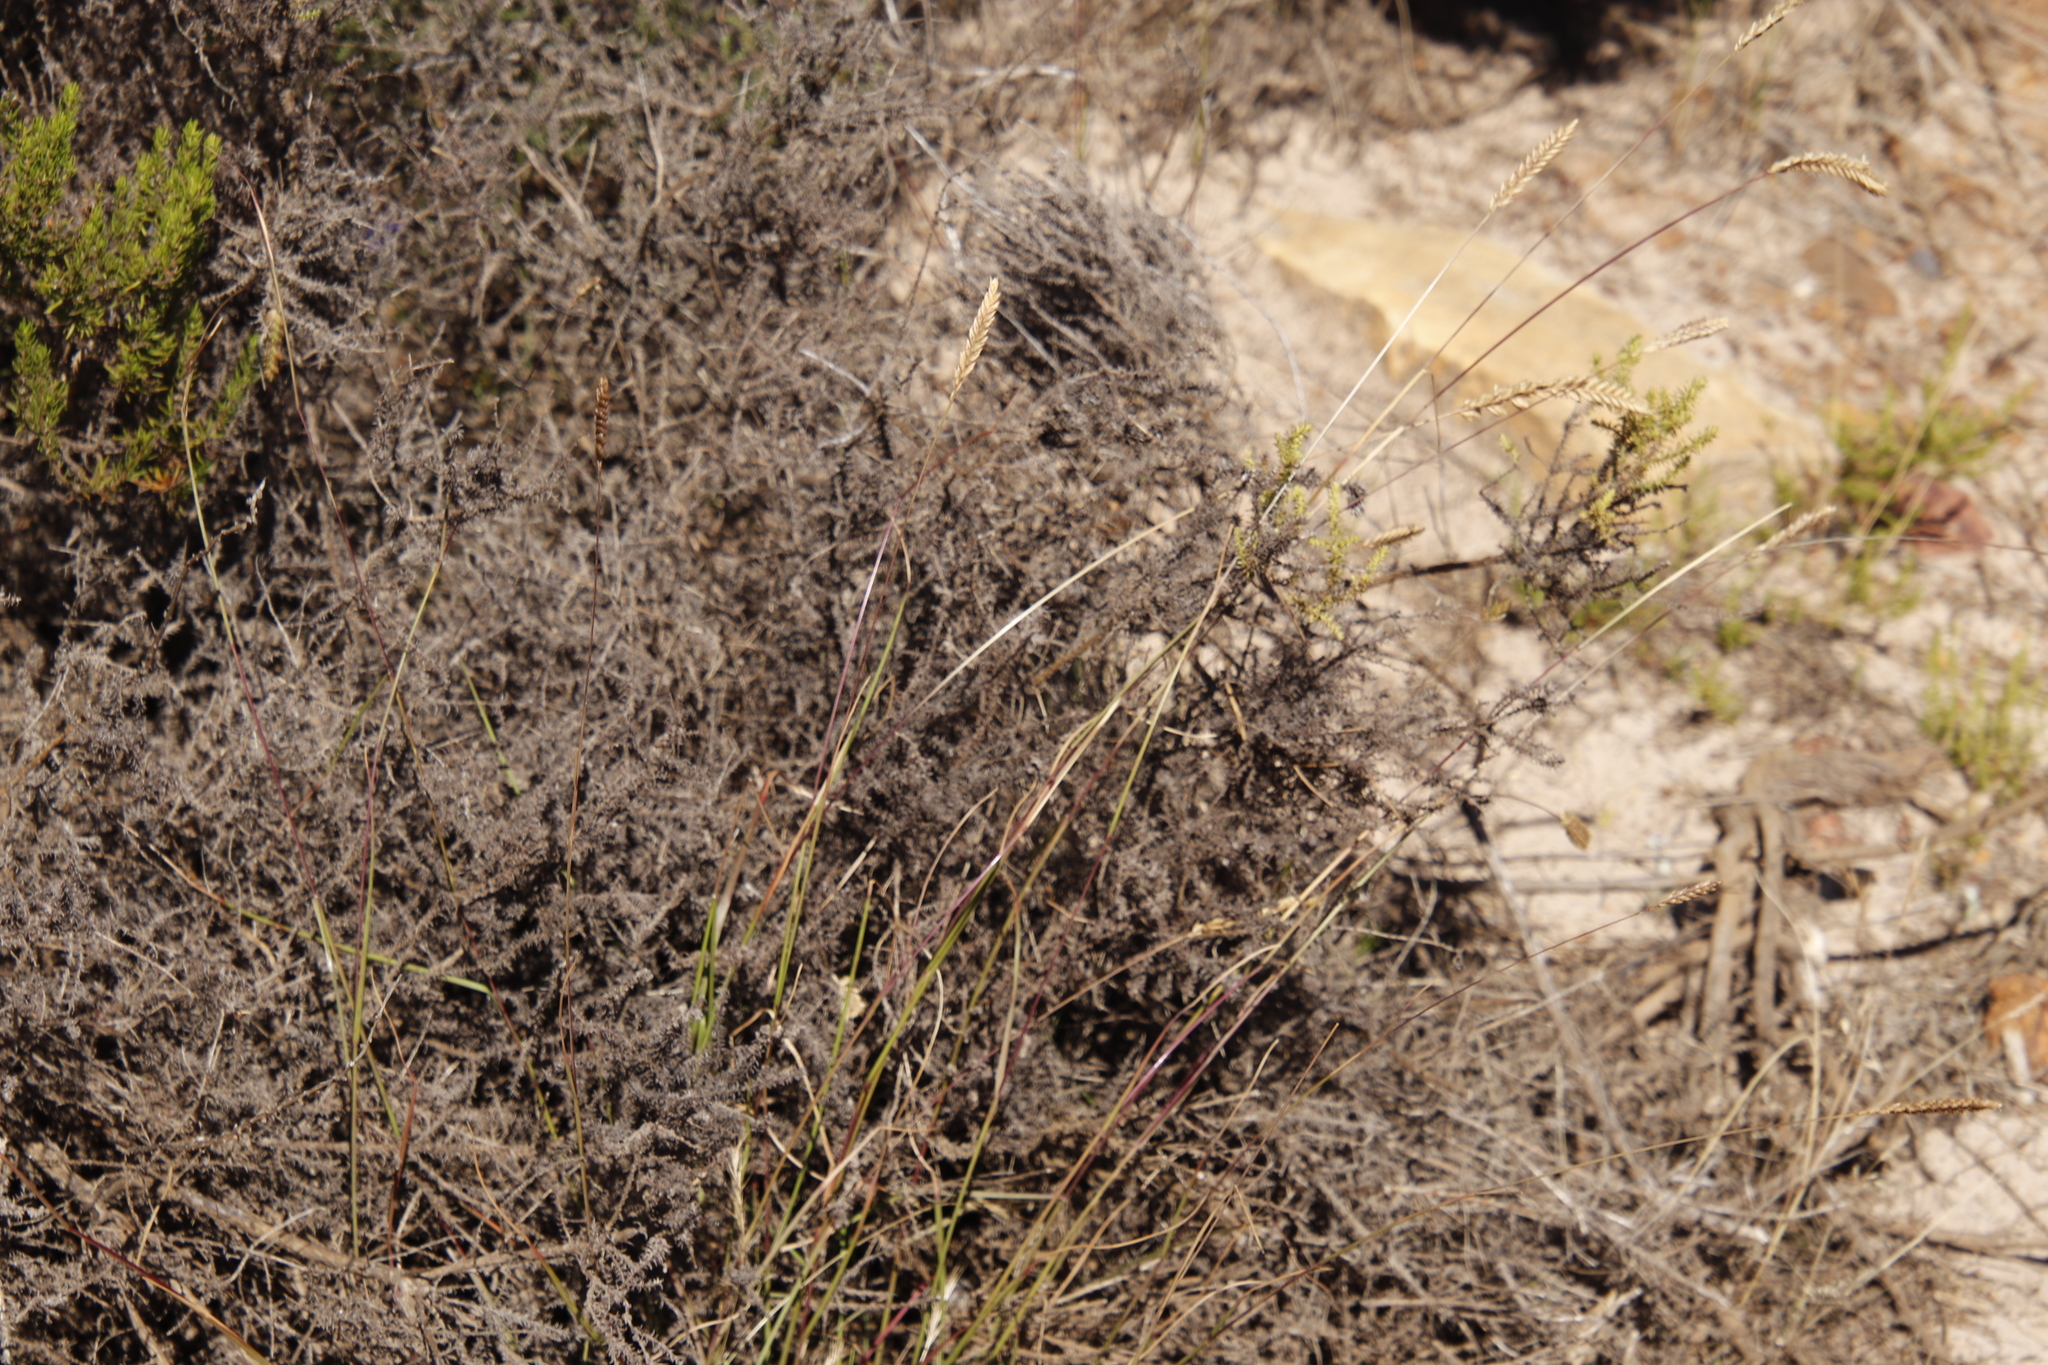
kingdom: Plantae
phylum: Tracheophyta
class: Magnoliopsida
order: Asterales
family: Asteraceae
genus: Seriphium
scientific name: Seriphium cinereum
